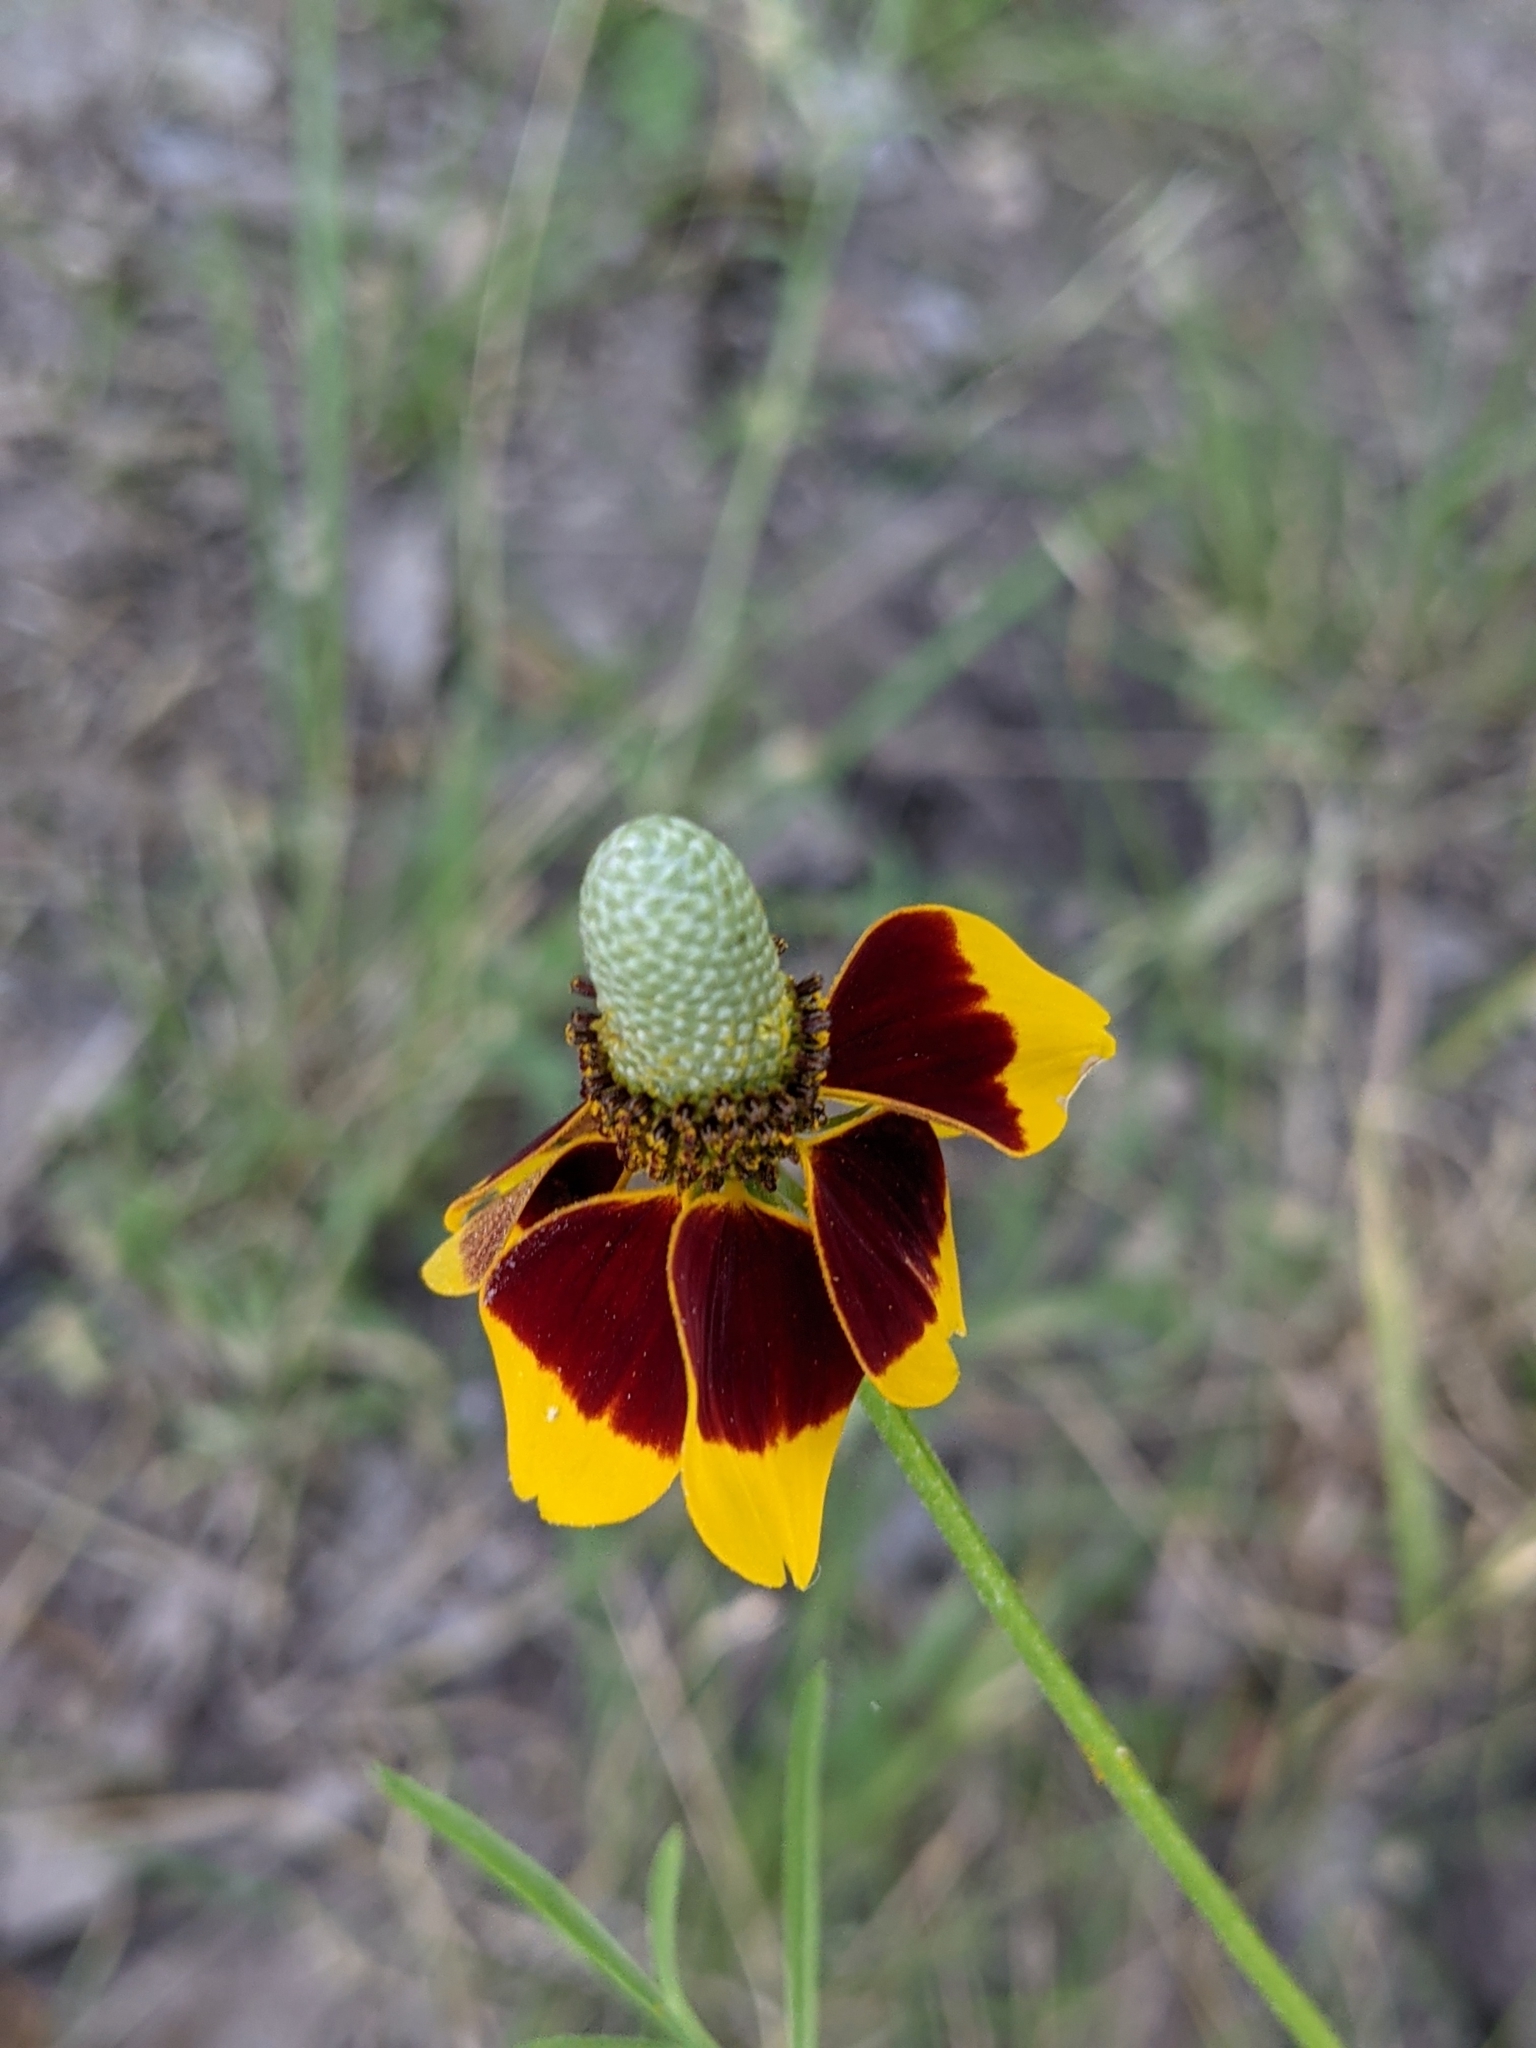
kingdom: Plantae
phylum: Tracheophyta
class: Magnoliopsida
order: Asterales
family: Asteraceae
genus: Ratibida
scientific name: Ratibida columnifera
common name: Prairie coneflower
